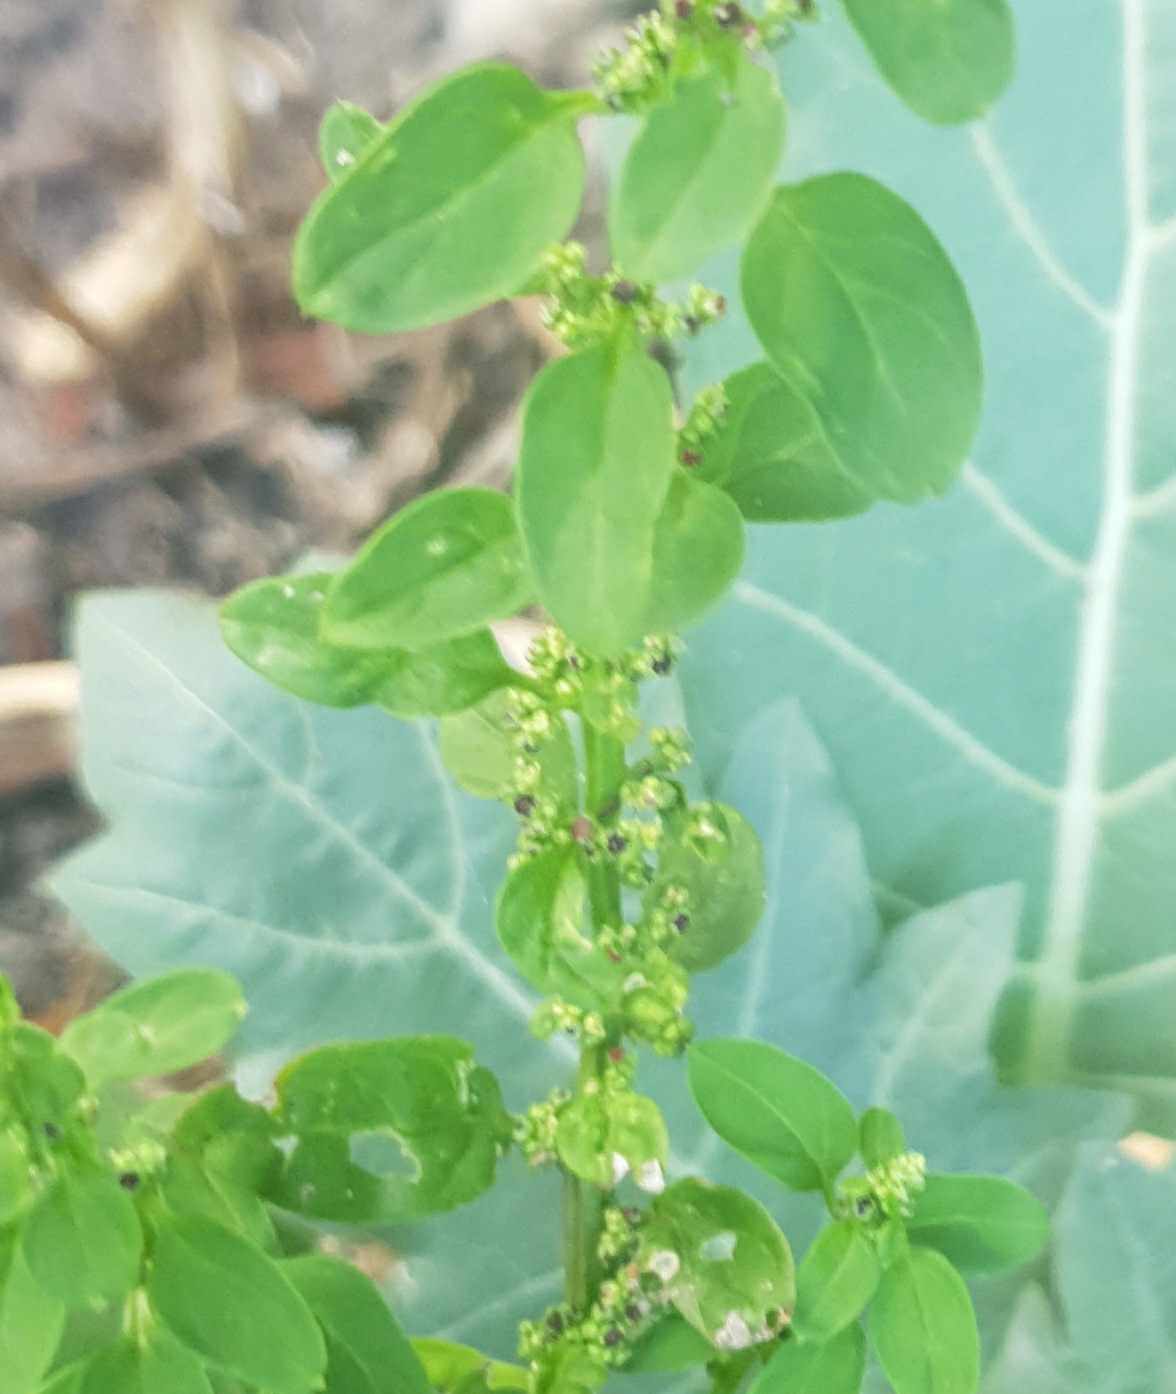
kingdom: Plantae
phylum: Tracheophyta
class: Magnoliopsida
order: Caryophyllales
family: Amaranthaceae
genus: Lipandra
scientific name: Lipandra polysperma
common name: Many-seed goosefoot
